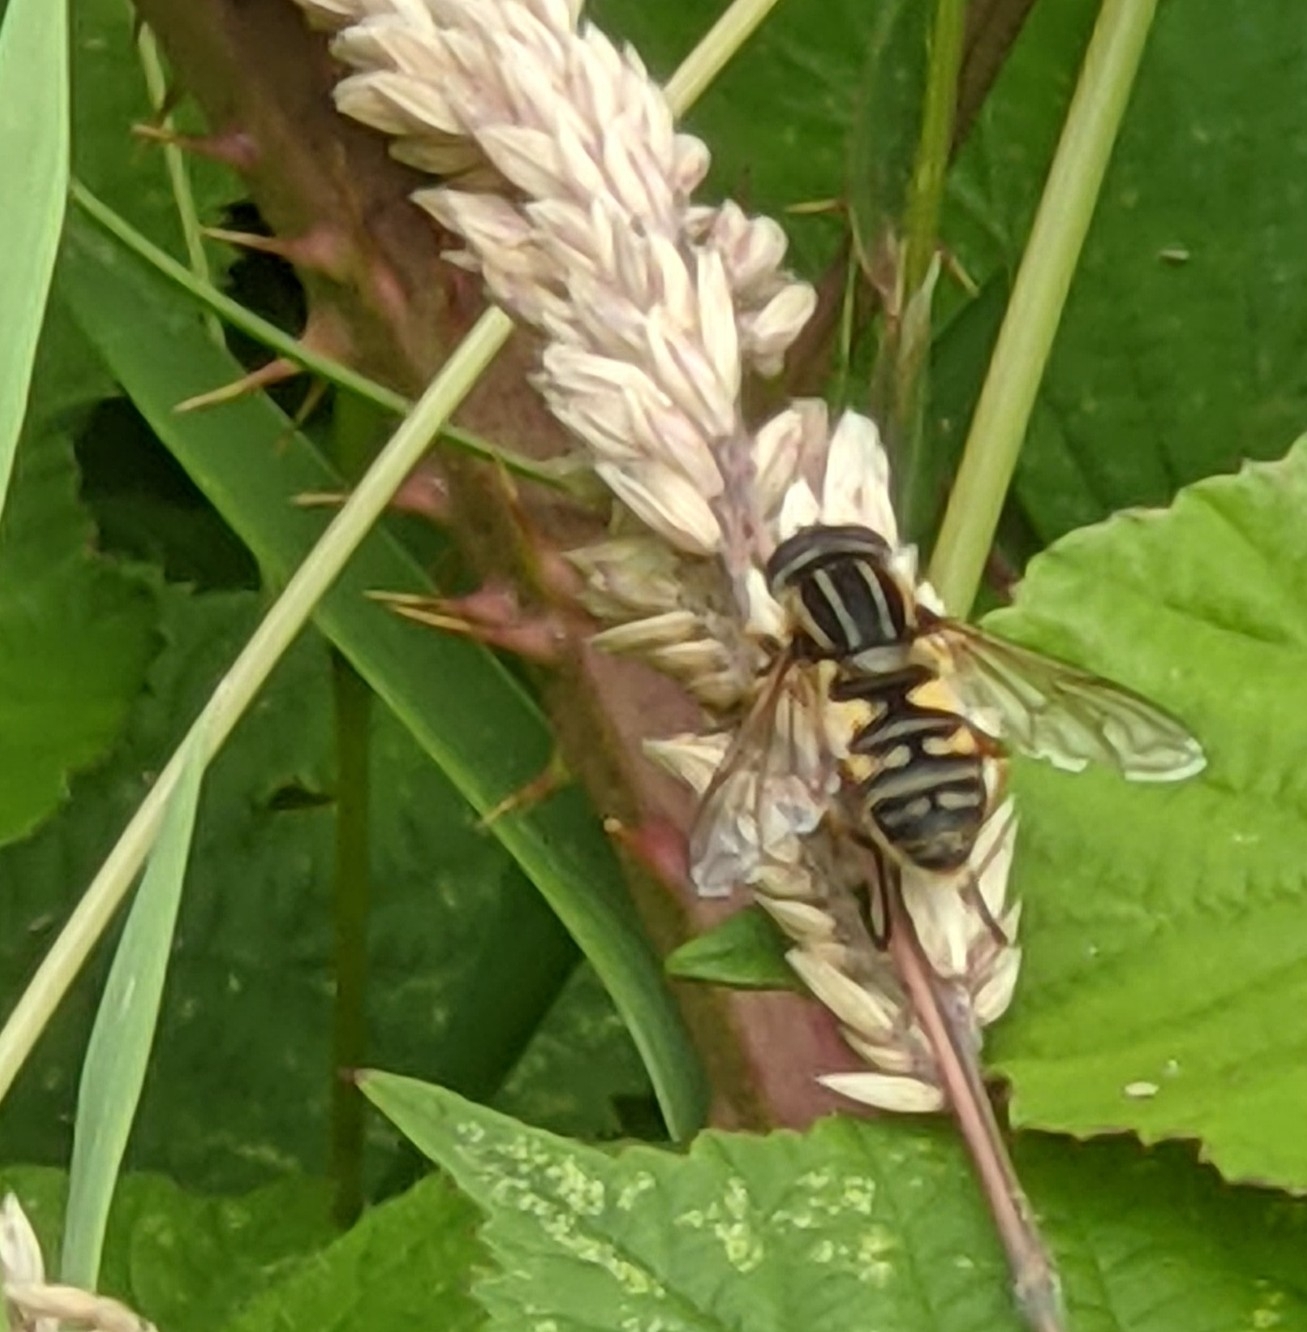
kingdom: Animalia
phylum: Arthropoda
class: Insecta
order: Diptera
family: Syrphidae
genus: Helophilus
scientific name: Helophilus pendulus
